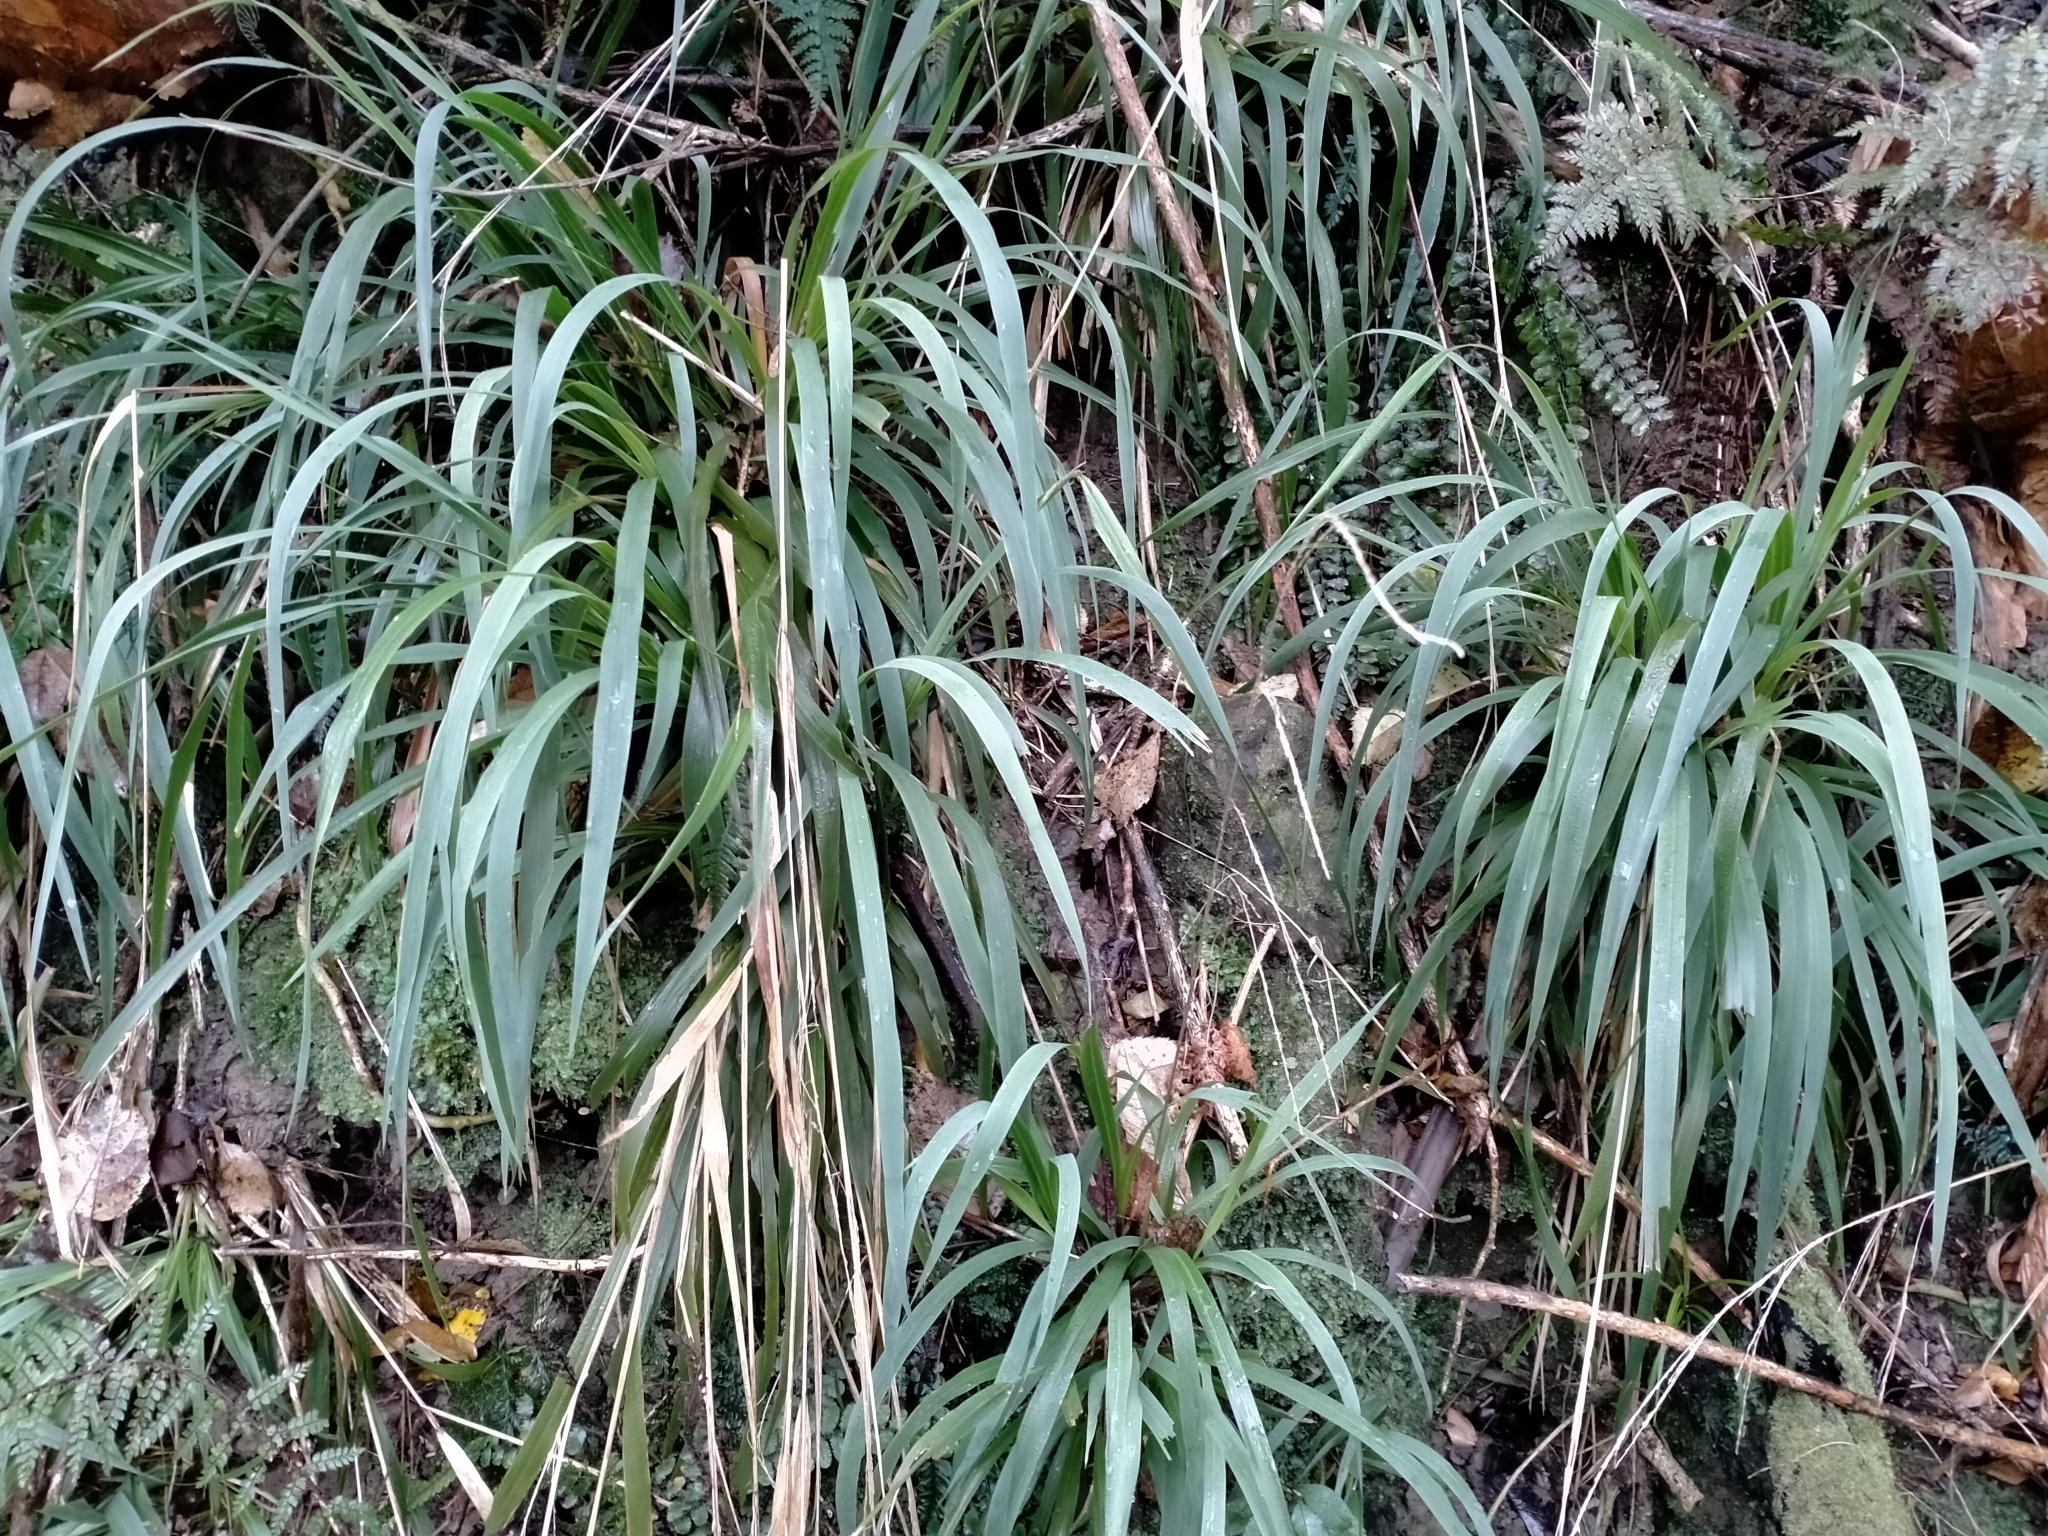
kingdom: Plantae
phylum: Tracheophyta
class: Liliopsida
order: Poales
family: Poaceae
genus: Ehrharta
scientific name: Ehrharta diplax
